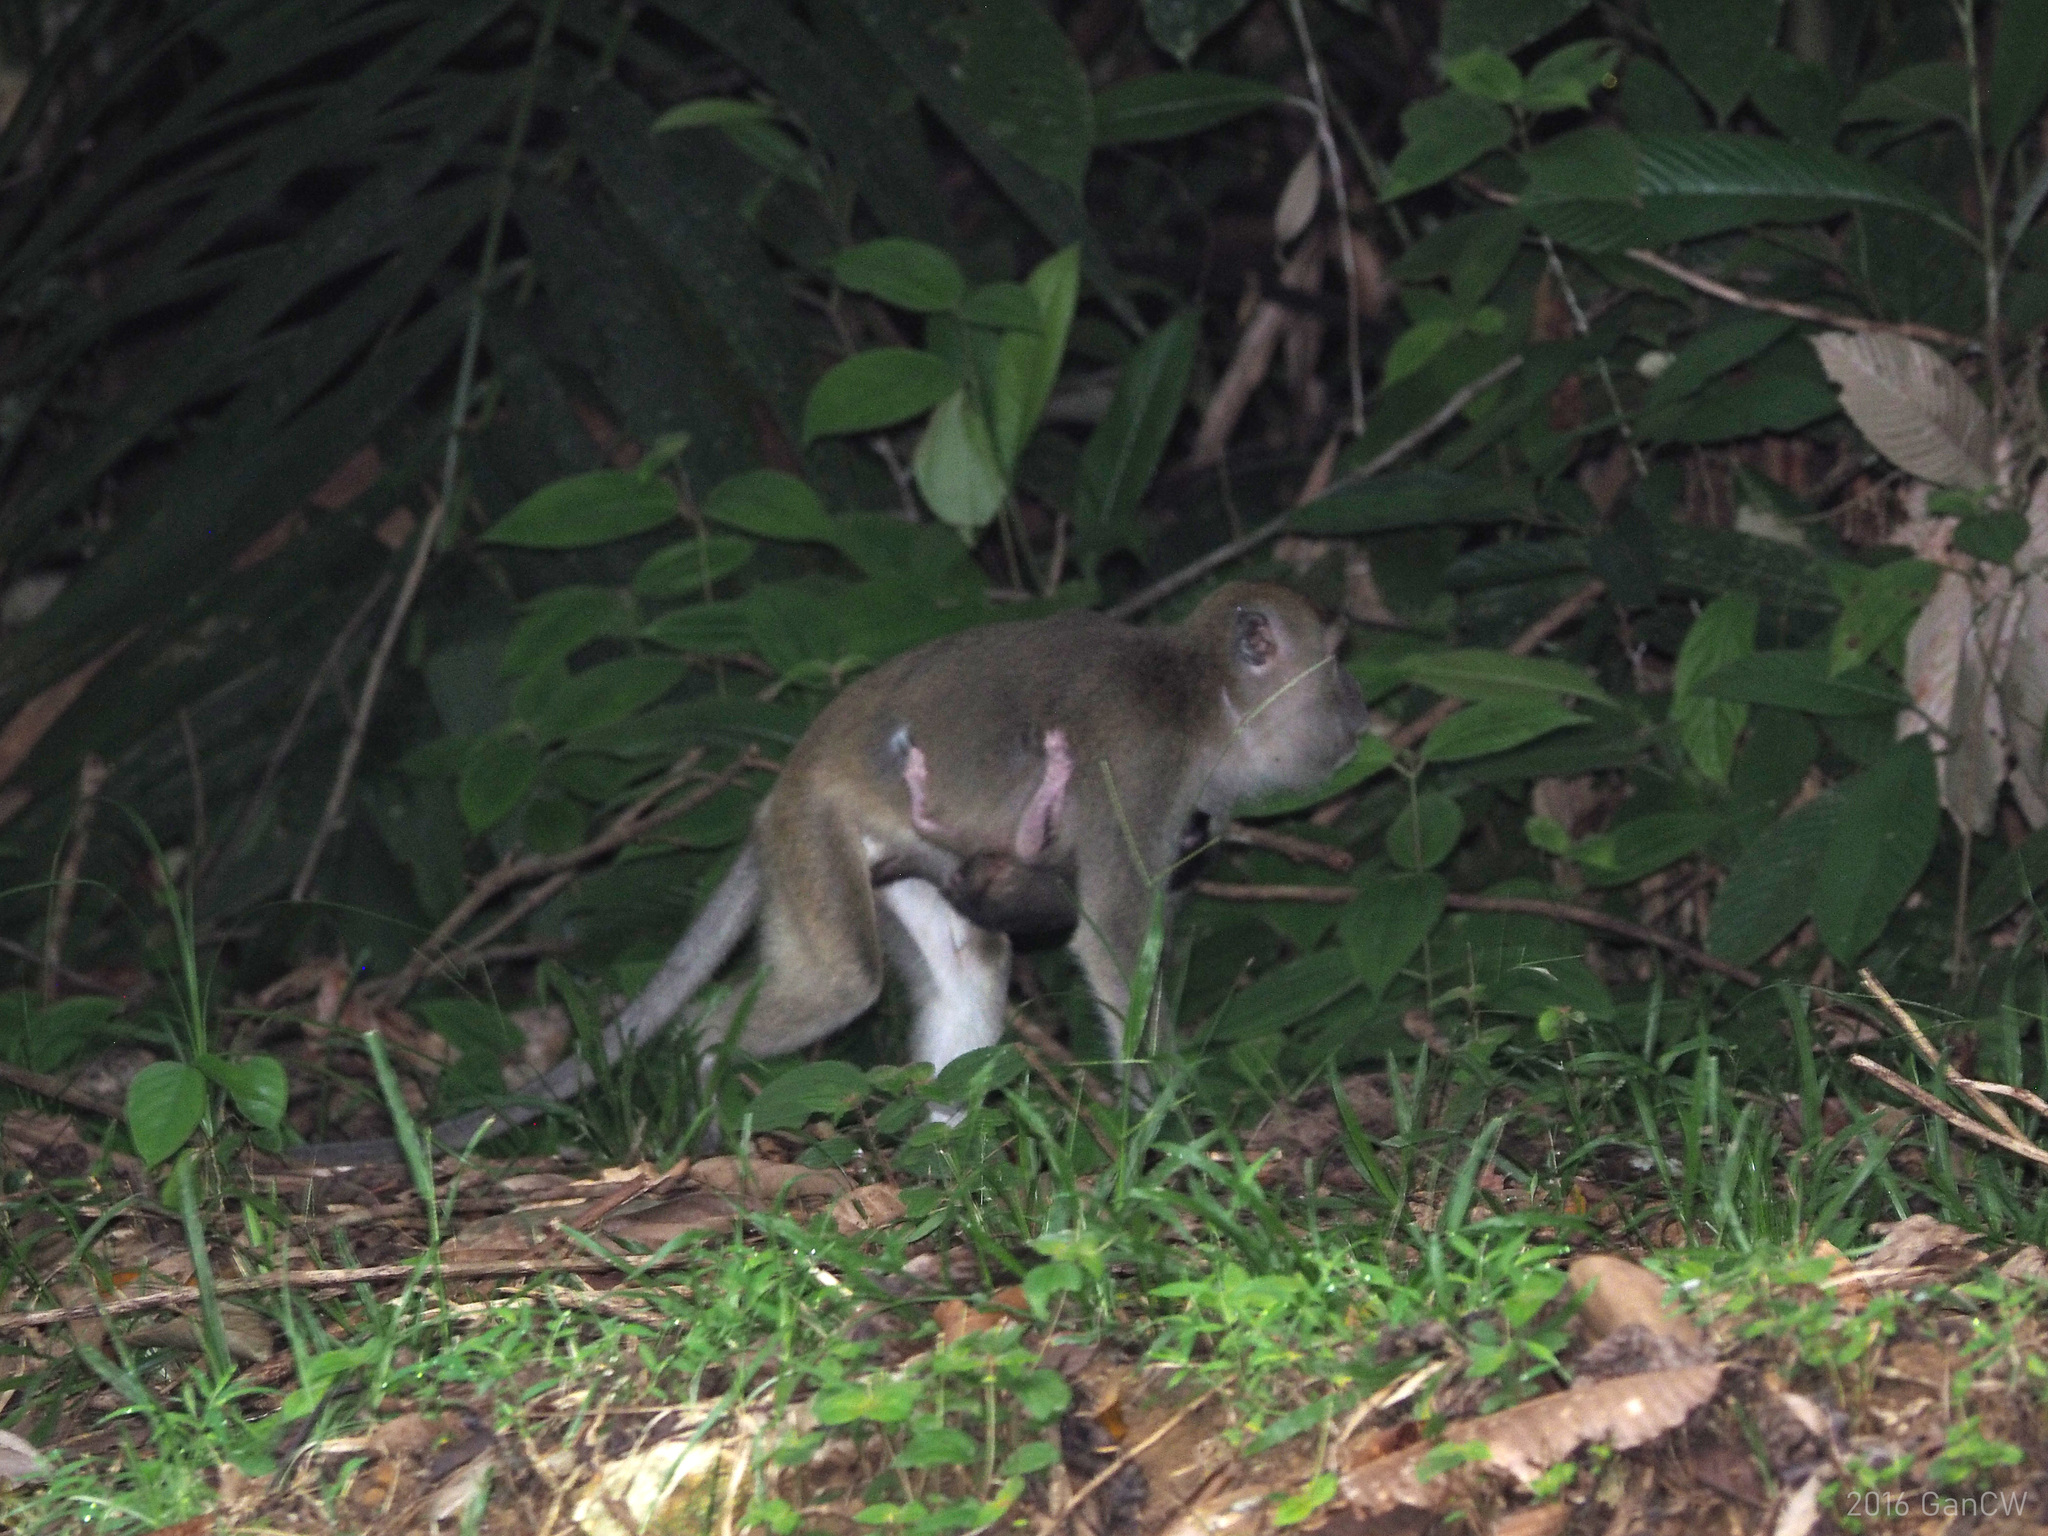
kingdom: Animalia
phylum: Chordata
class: Mammalia
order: Primates
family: Cercopithecidae
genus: Macaca
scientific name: Macaca fascicularis
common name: Crab-eating macaque
